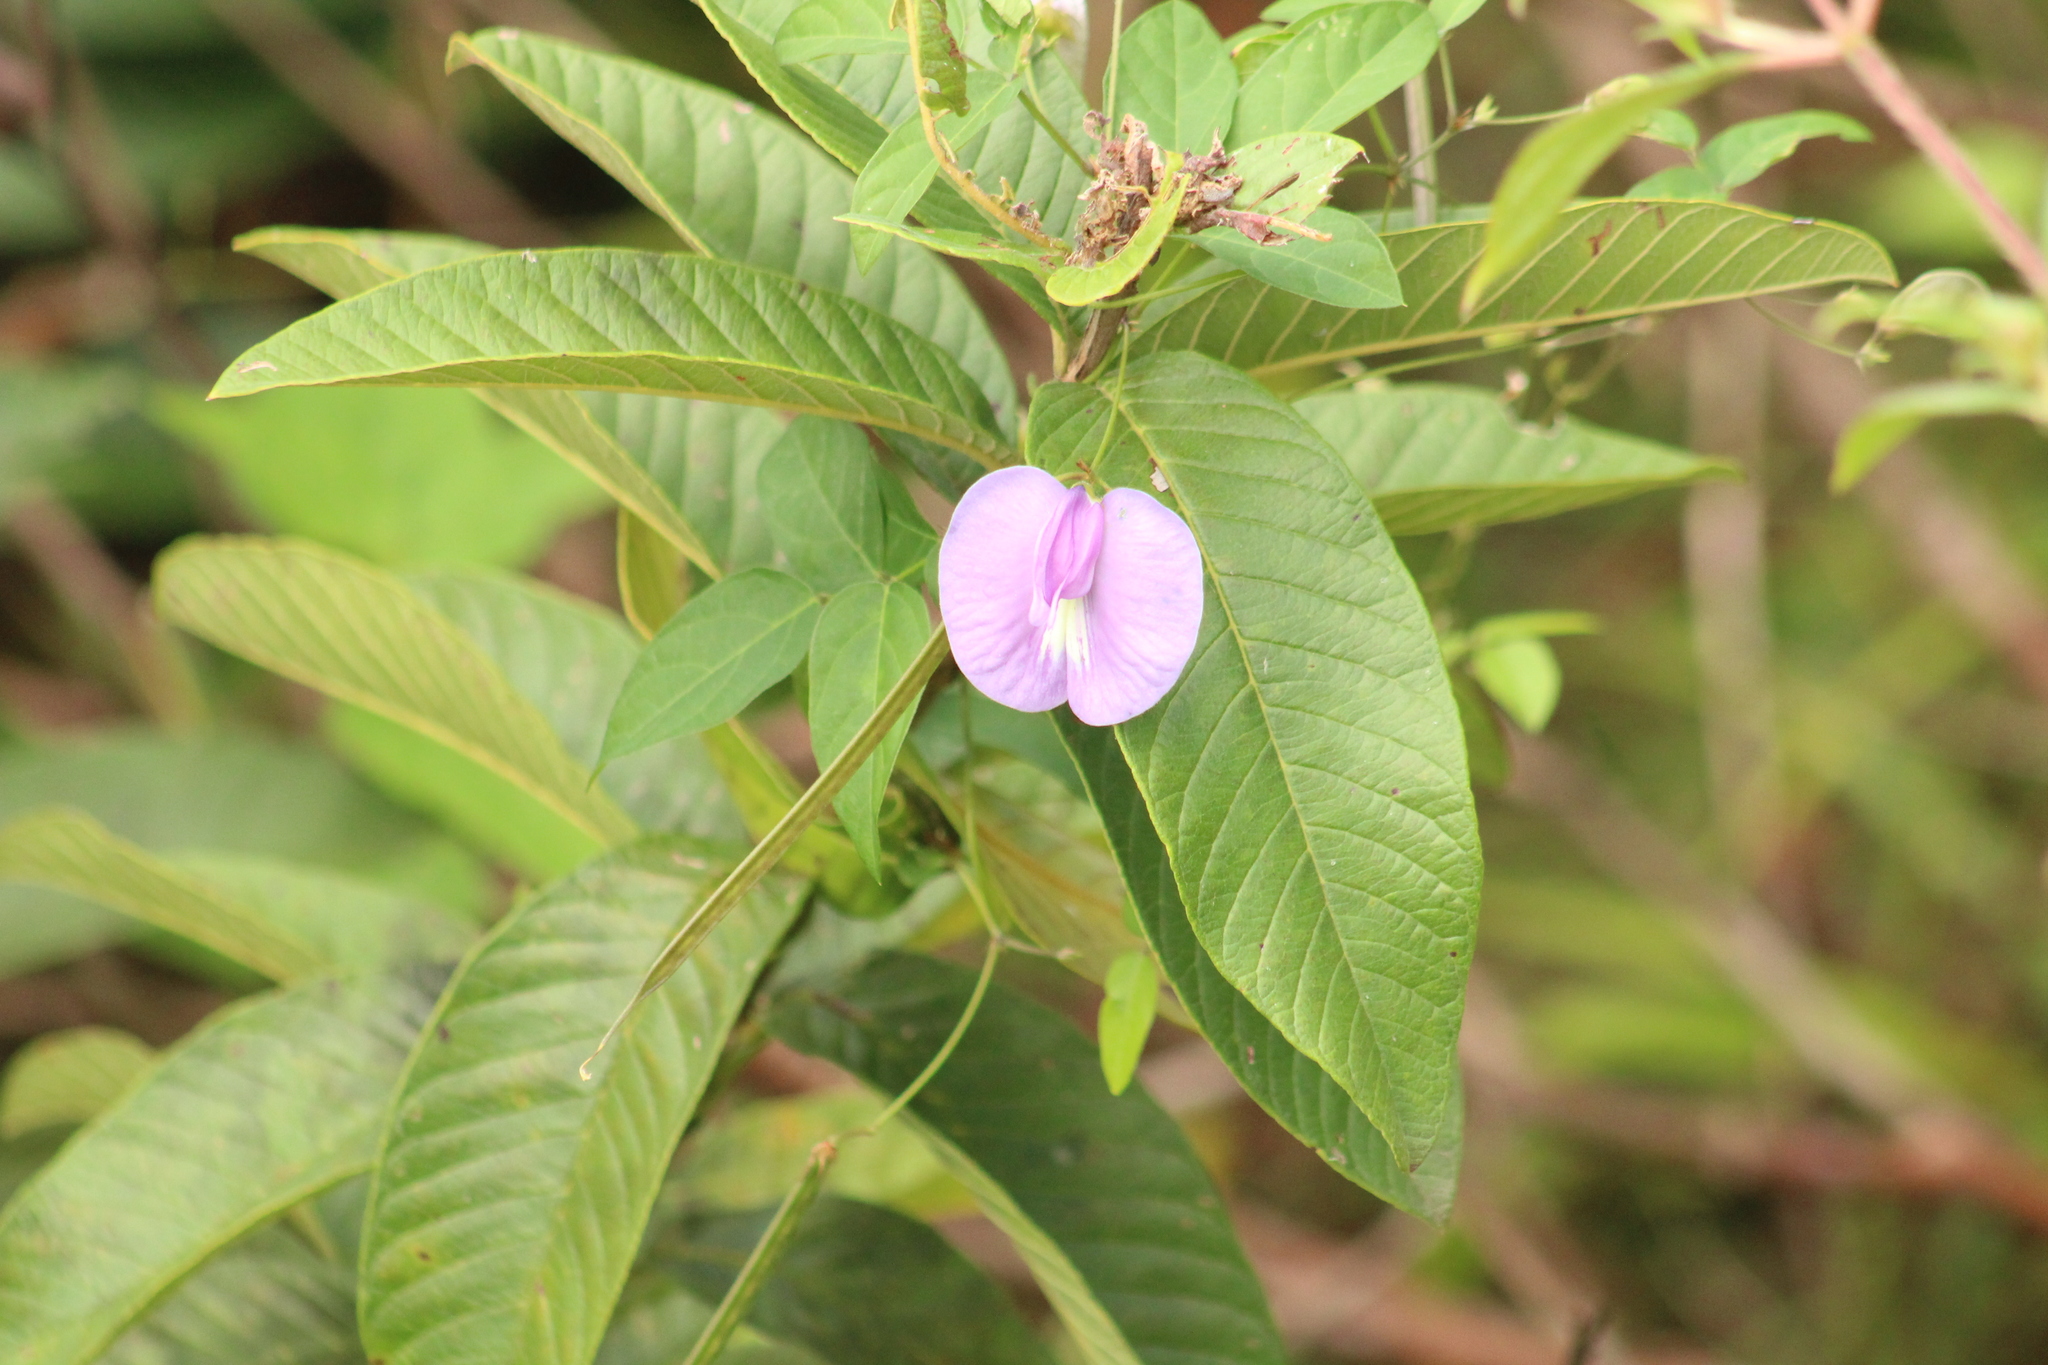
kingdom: Plantae
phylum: Tracheophyta
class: Magnoliopsida
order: Fabales
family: Fabaceae
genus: Centrosema
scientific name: Centrosema virginianum
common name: Butterfly-pea
